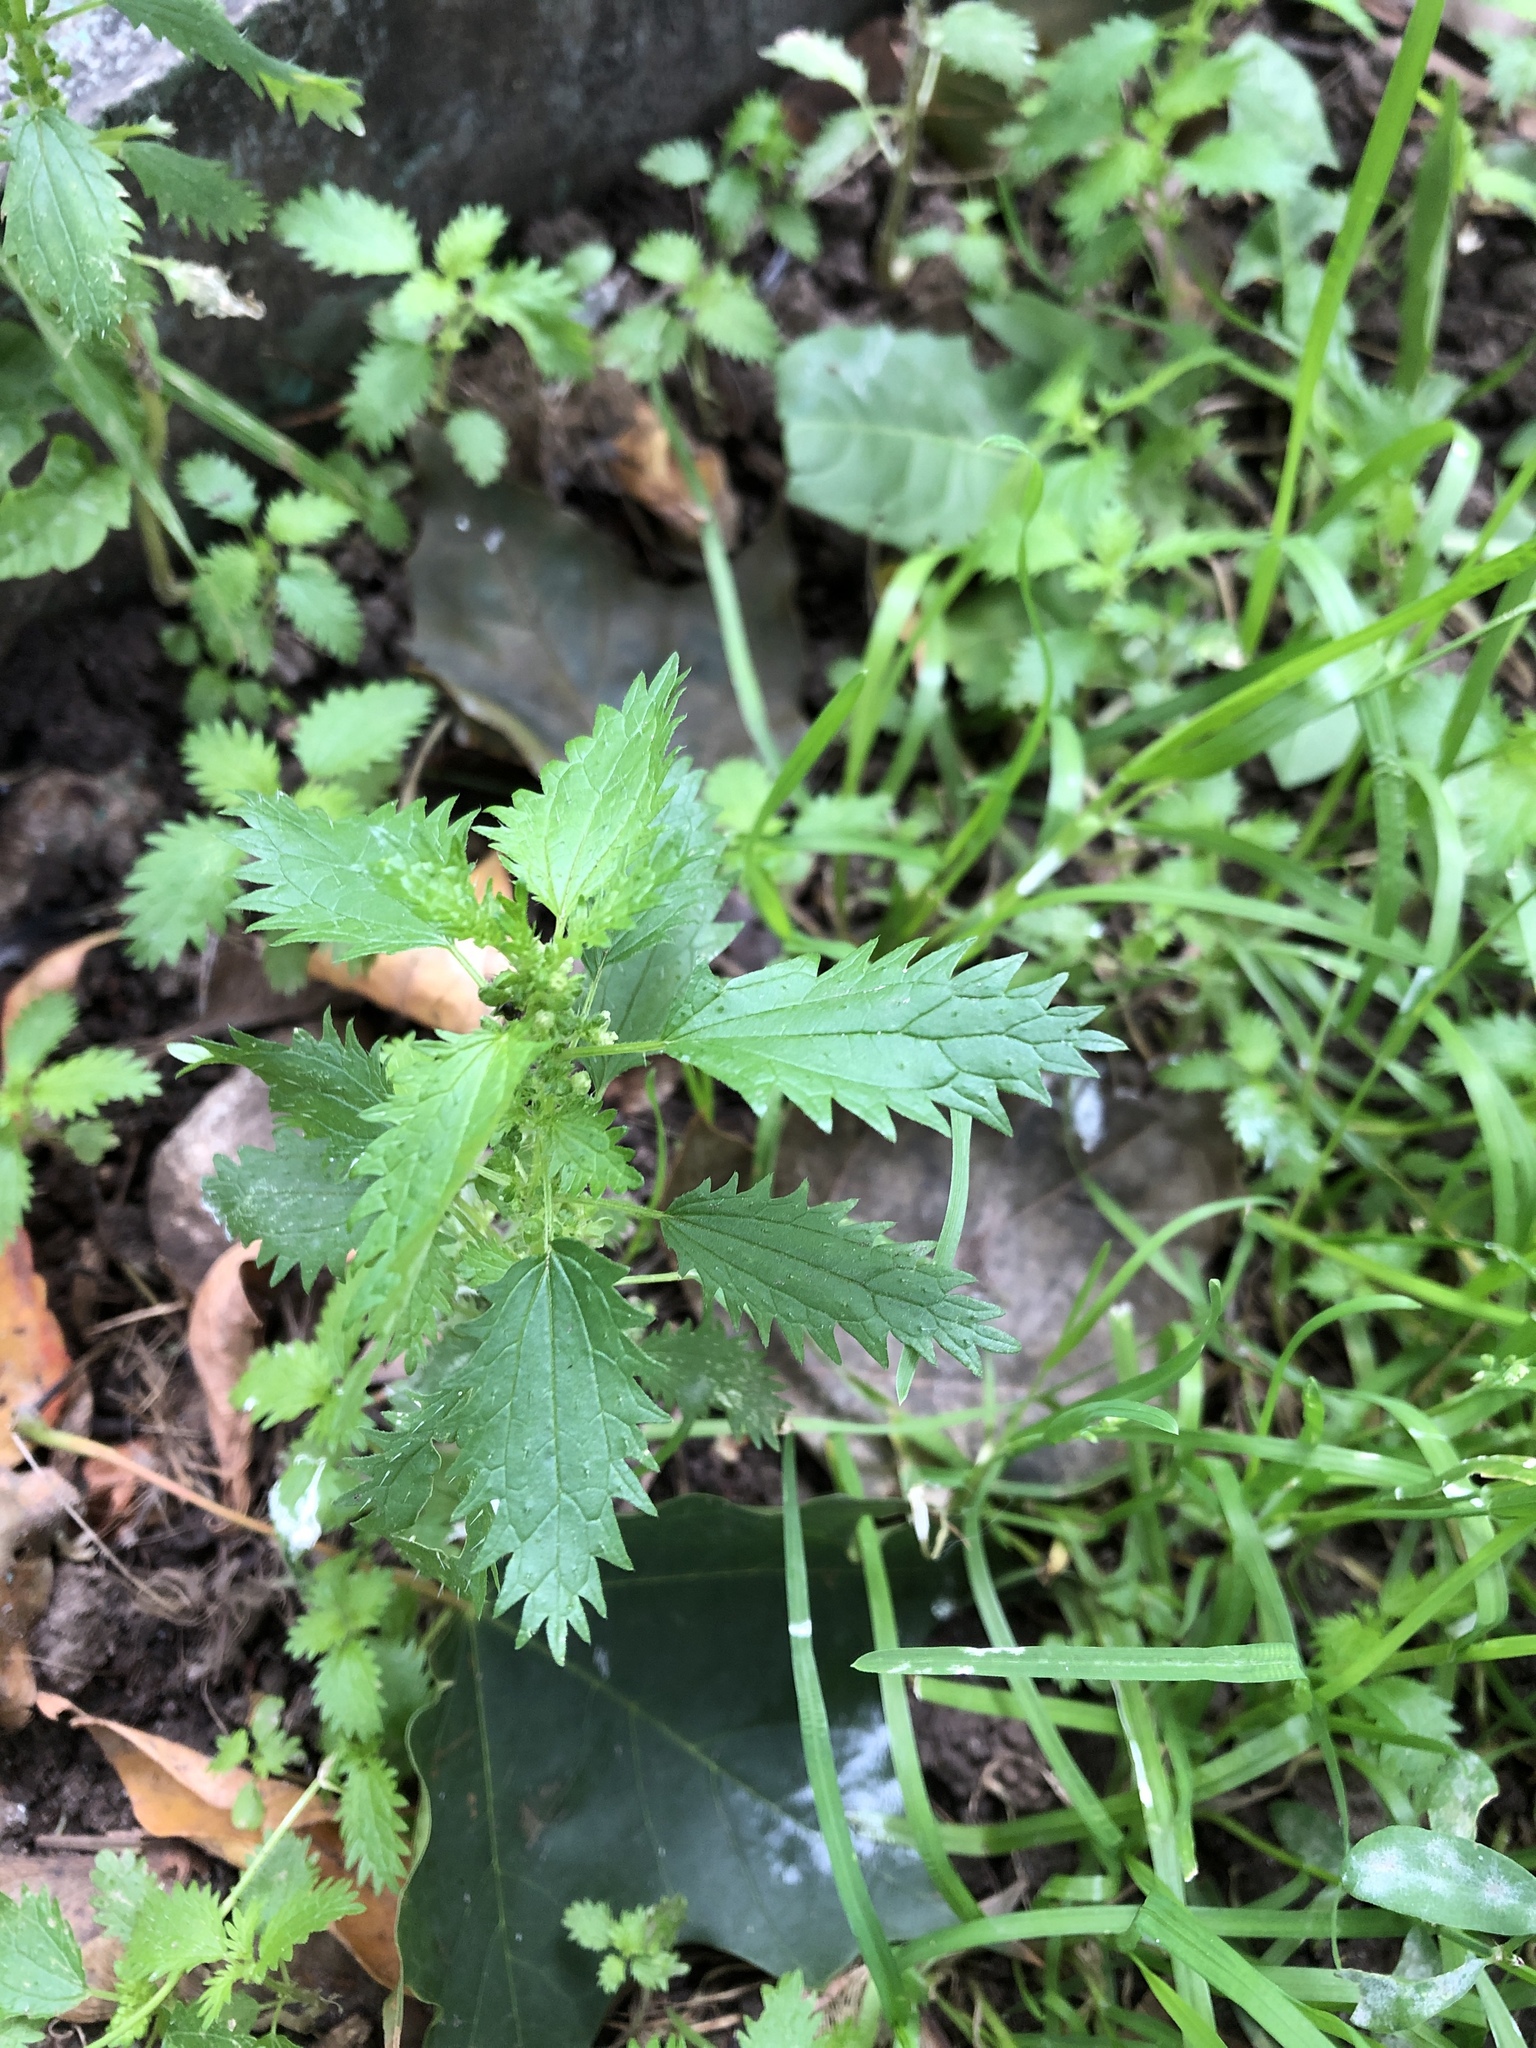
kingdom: Plantae
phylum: Tracheophyta
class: Magnoliopsida
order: Rosales
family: Urticaceae
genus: Urtica
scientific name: Urtica urens
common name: Dwarf nettle
